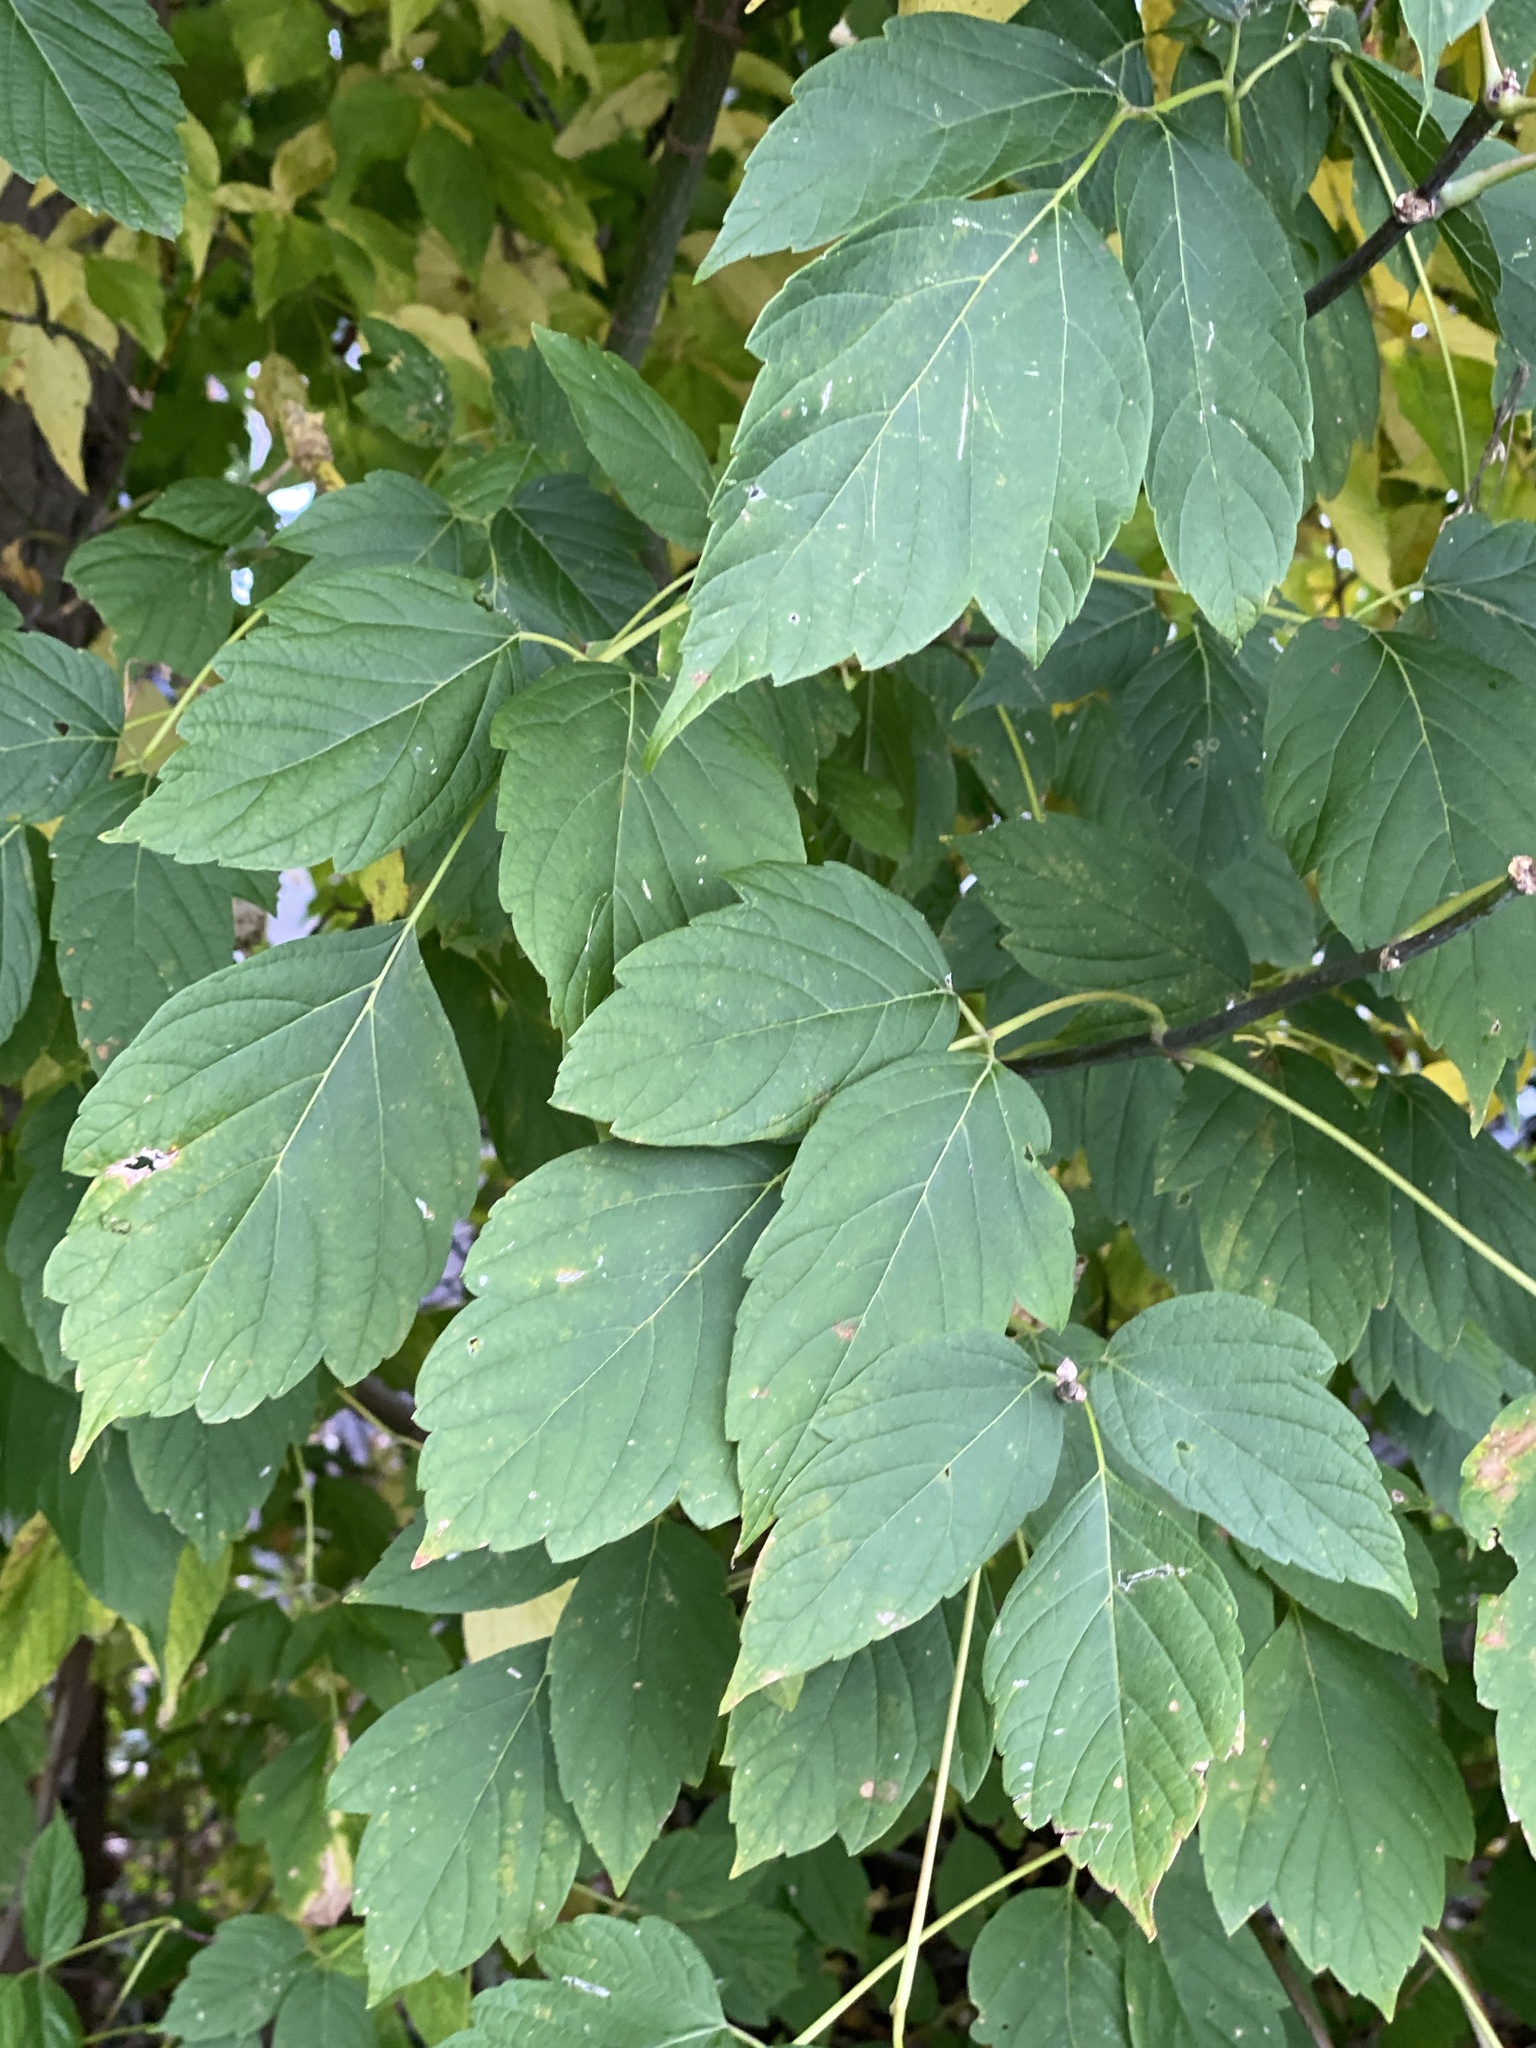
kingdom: Plantae
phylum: Tracheophyta
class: Magnoliopsida
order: Sapindales
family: Sapindaceae
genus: Acer
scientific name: Acer negundo
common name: Ashleaf maple
